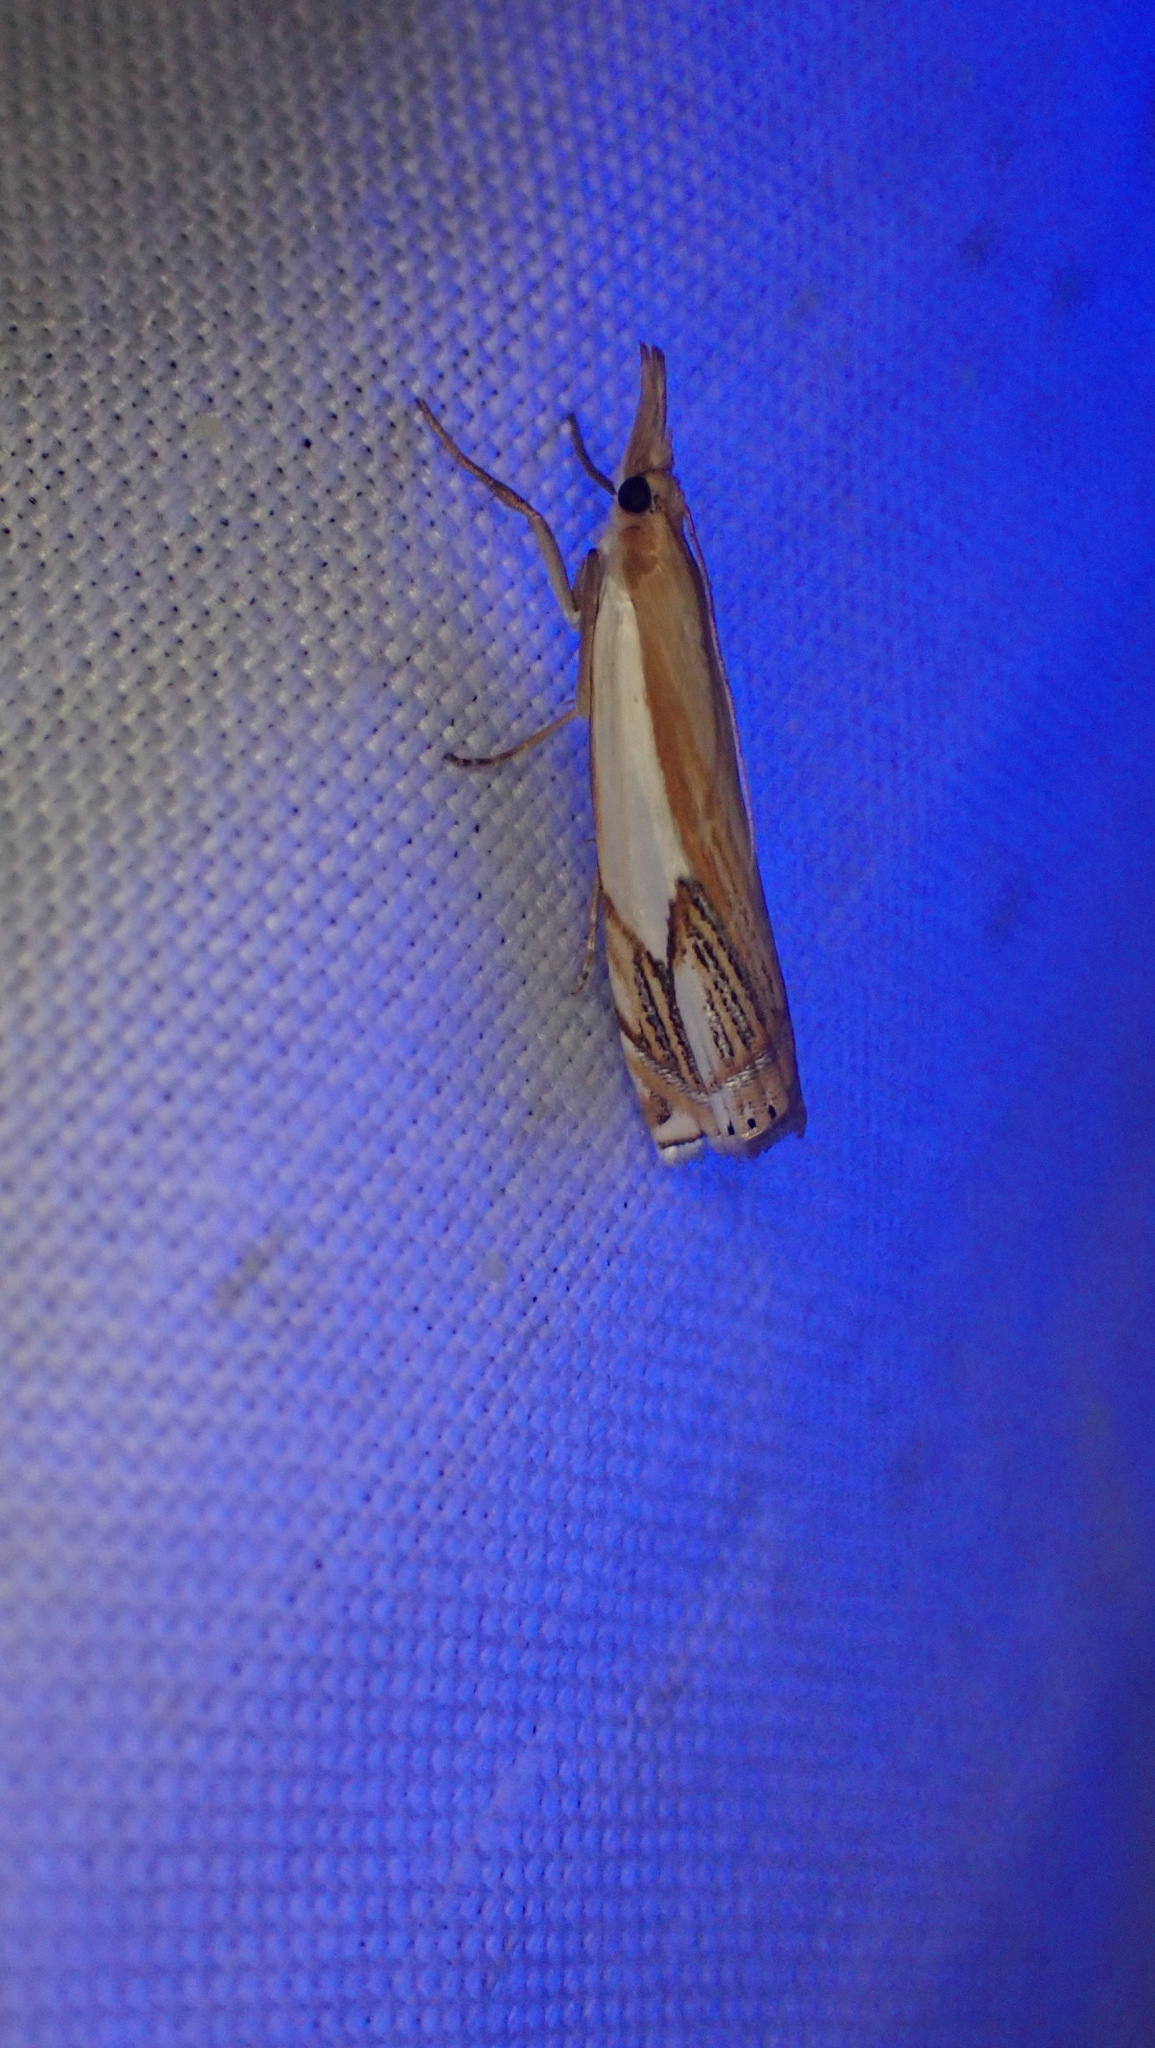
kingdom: Animalia
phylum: Arthropoda
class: Insecta
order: Lepidoptera
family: Crambidae
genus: Crambus
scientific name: Crambus agitatellus
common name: Double-banded grass-veneer
